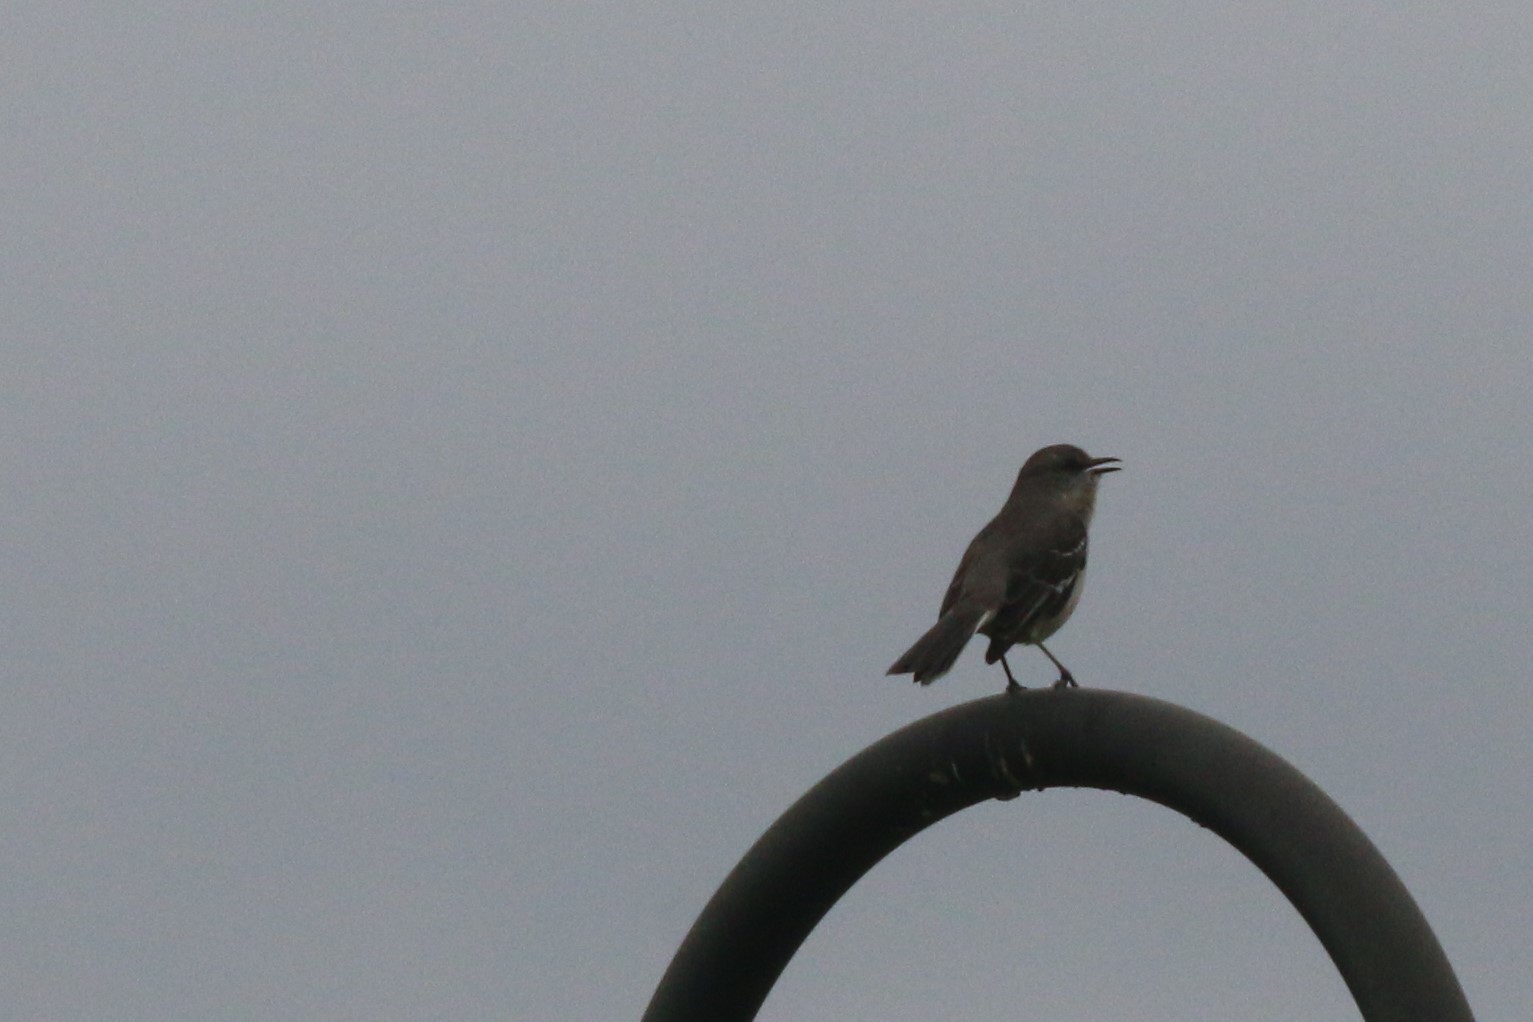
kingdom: Animalia
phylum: Chordata
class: Aves
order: Passeriformes
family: Mimidae
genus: Mimus
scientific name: Mimus polyglottos
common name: Northern mockingbird
